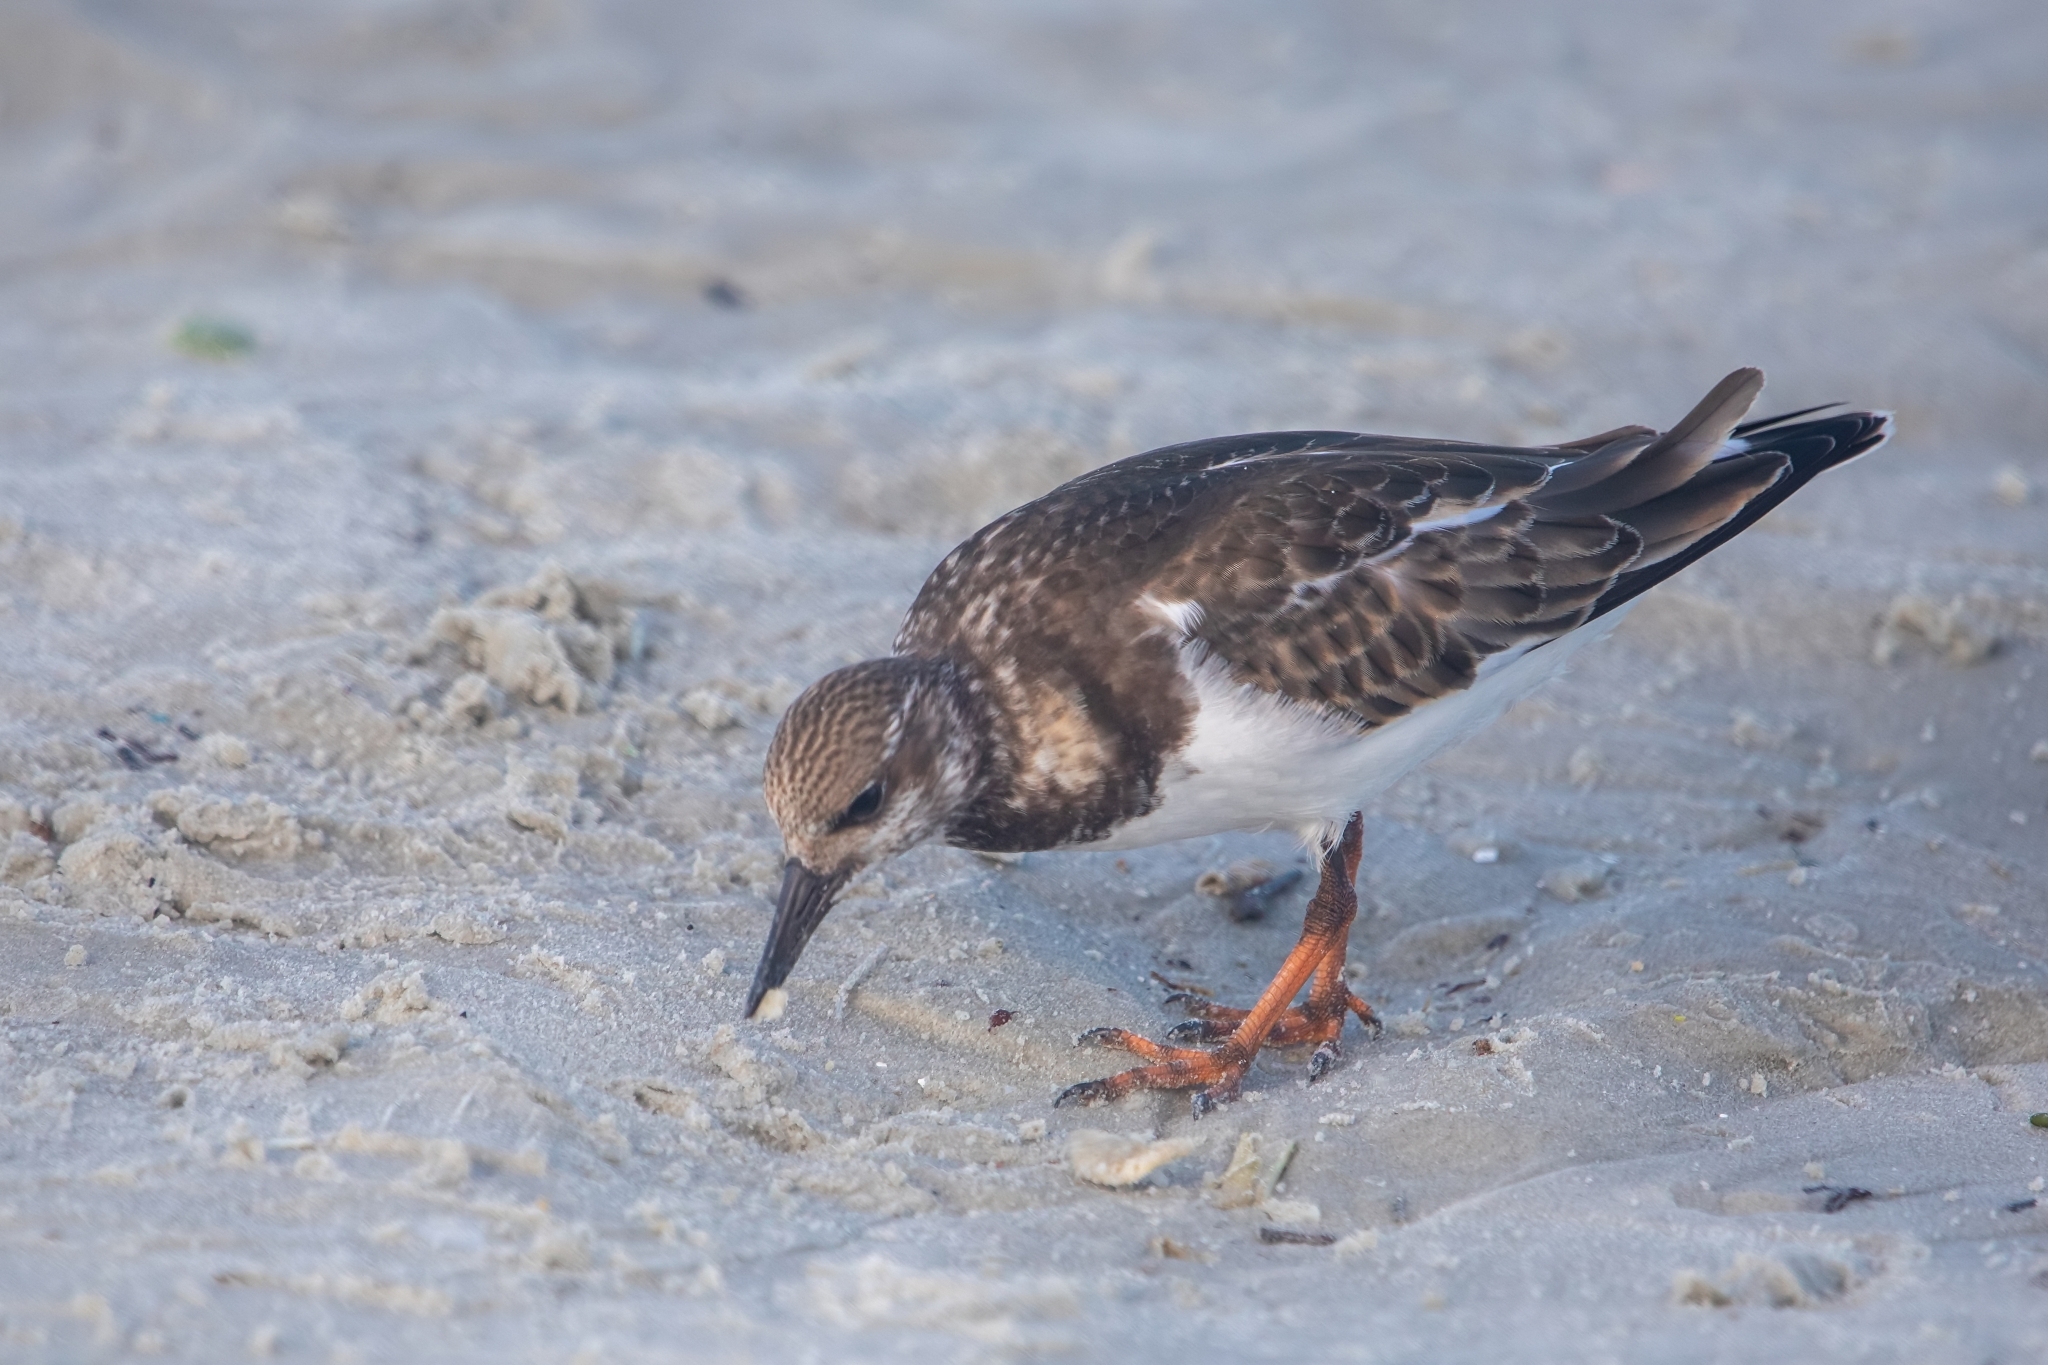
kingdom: Animalia
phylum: Chordata
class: Aves
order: Charadriiformes
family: Scolopacidae
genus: Arenaria
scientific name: Arenaria interpres
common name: Ruddy turnstone
